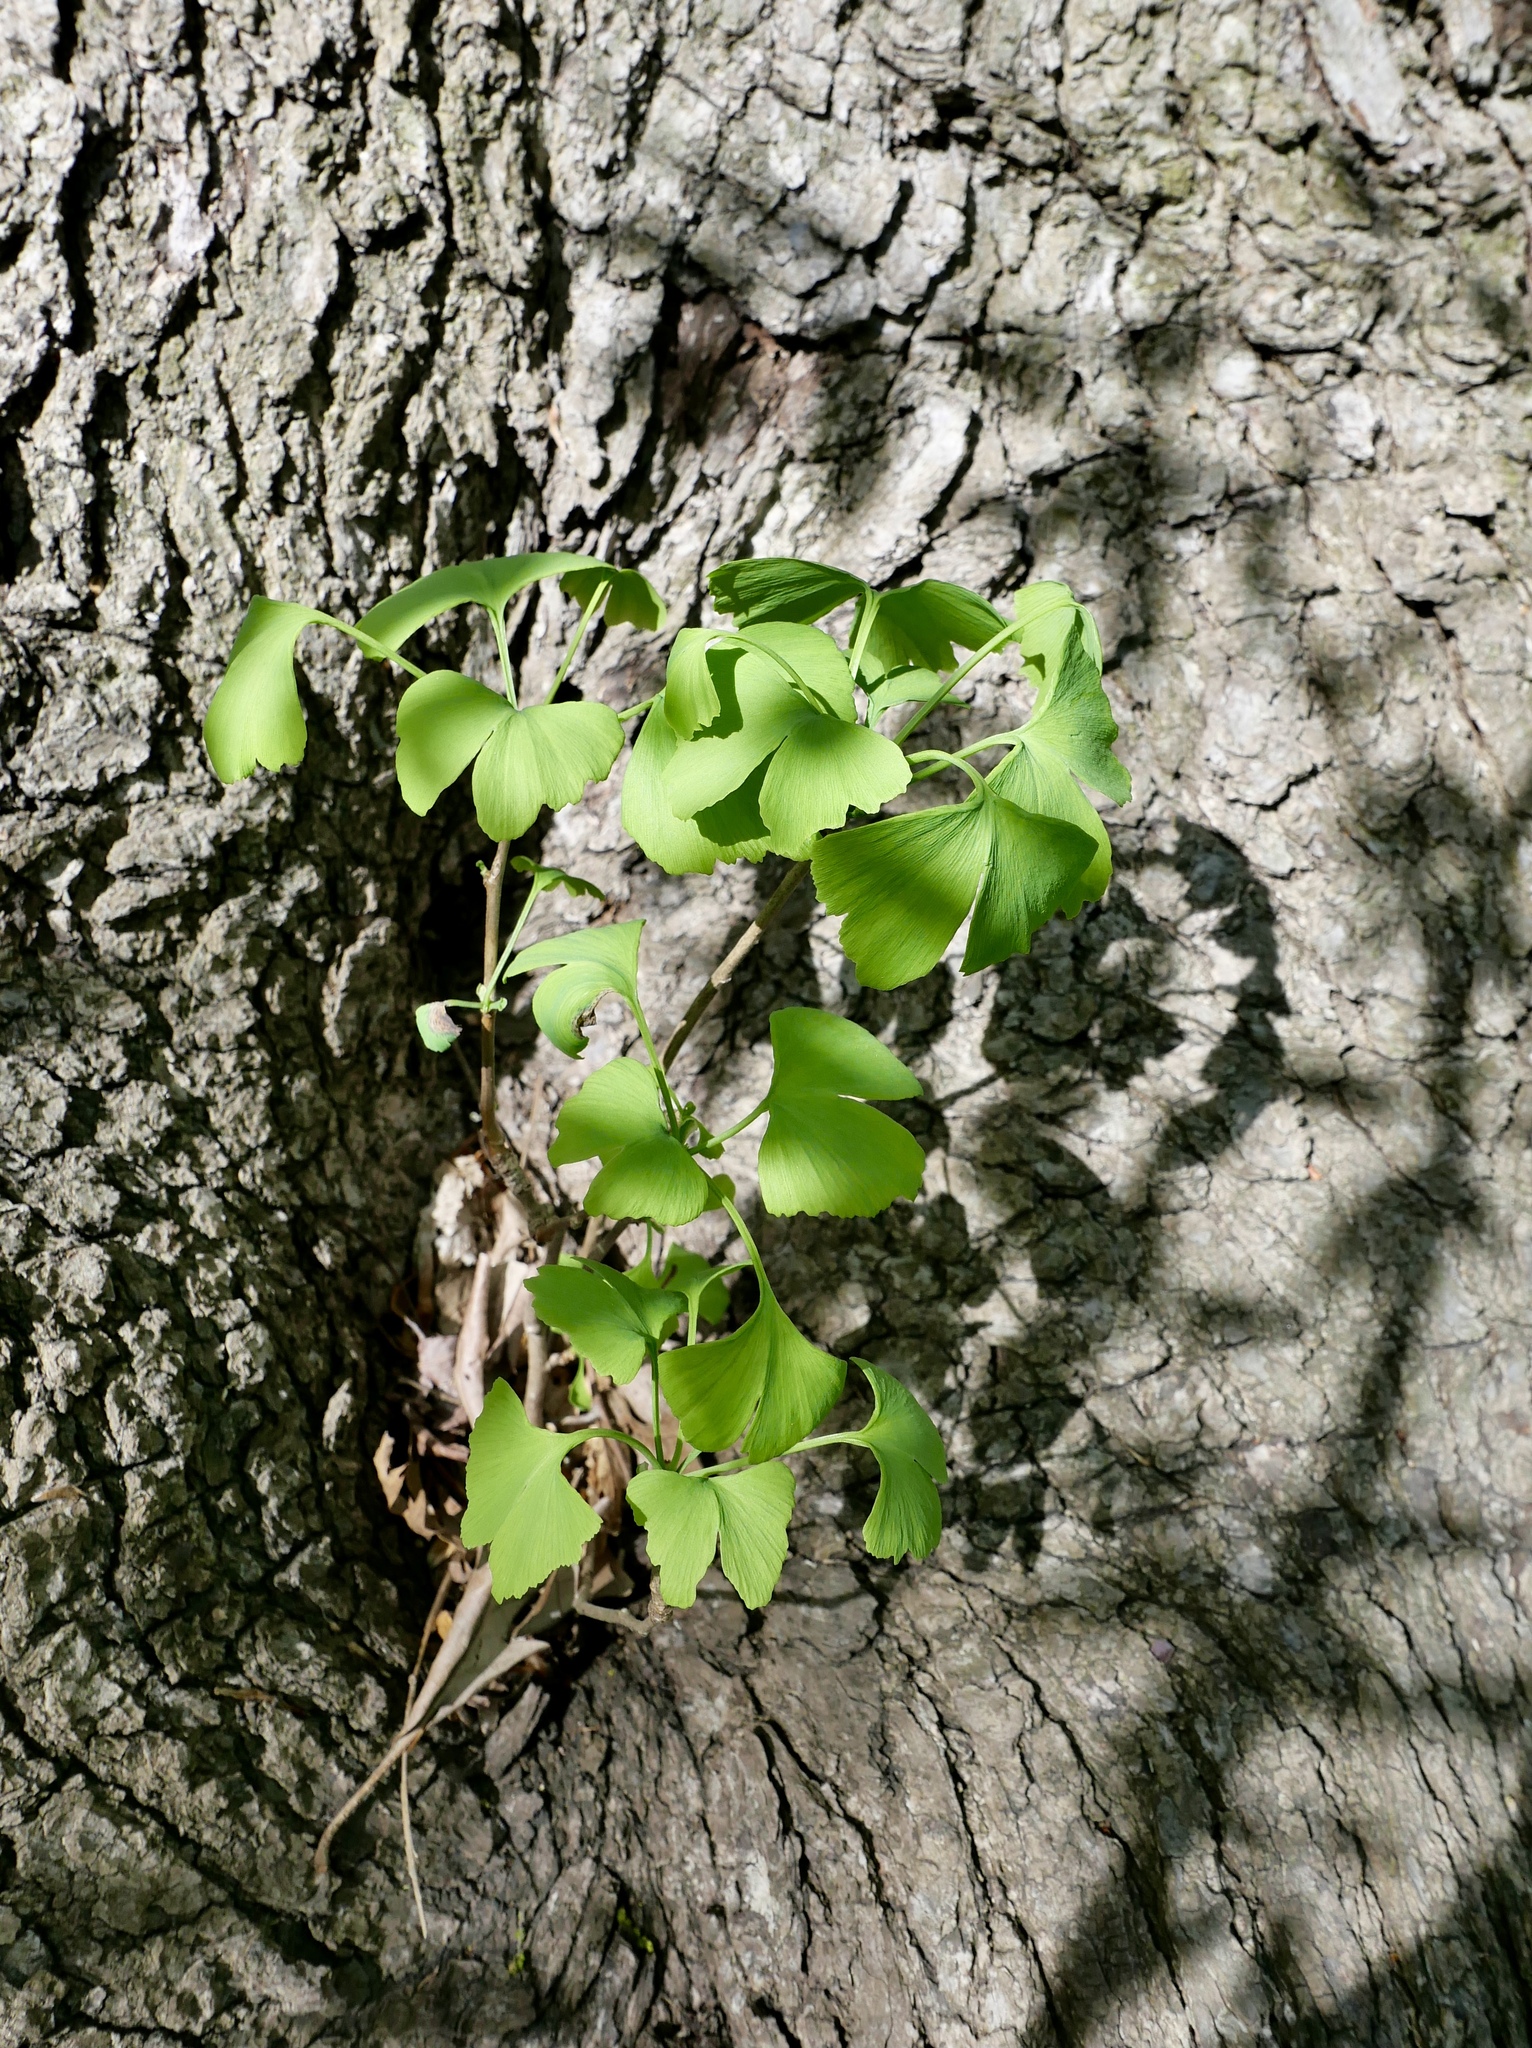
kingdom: Plantae
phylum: Tracheophyta
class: Ginkgoopsida
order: Ginkgoales
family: Ginkgoaceae
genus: Ginkgo
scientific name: Ginkgo biloba
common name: Ginkgo
